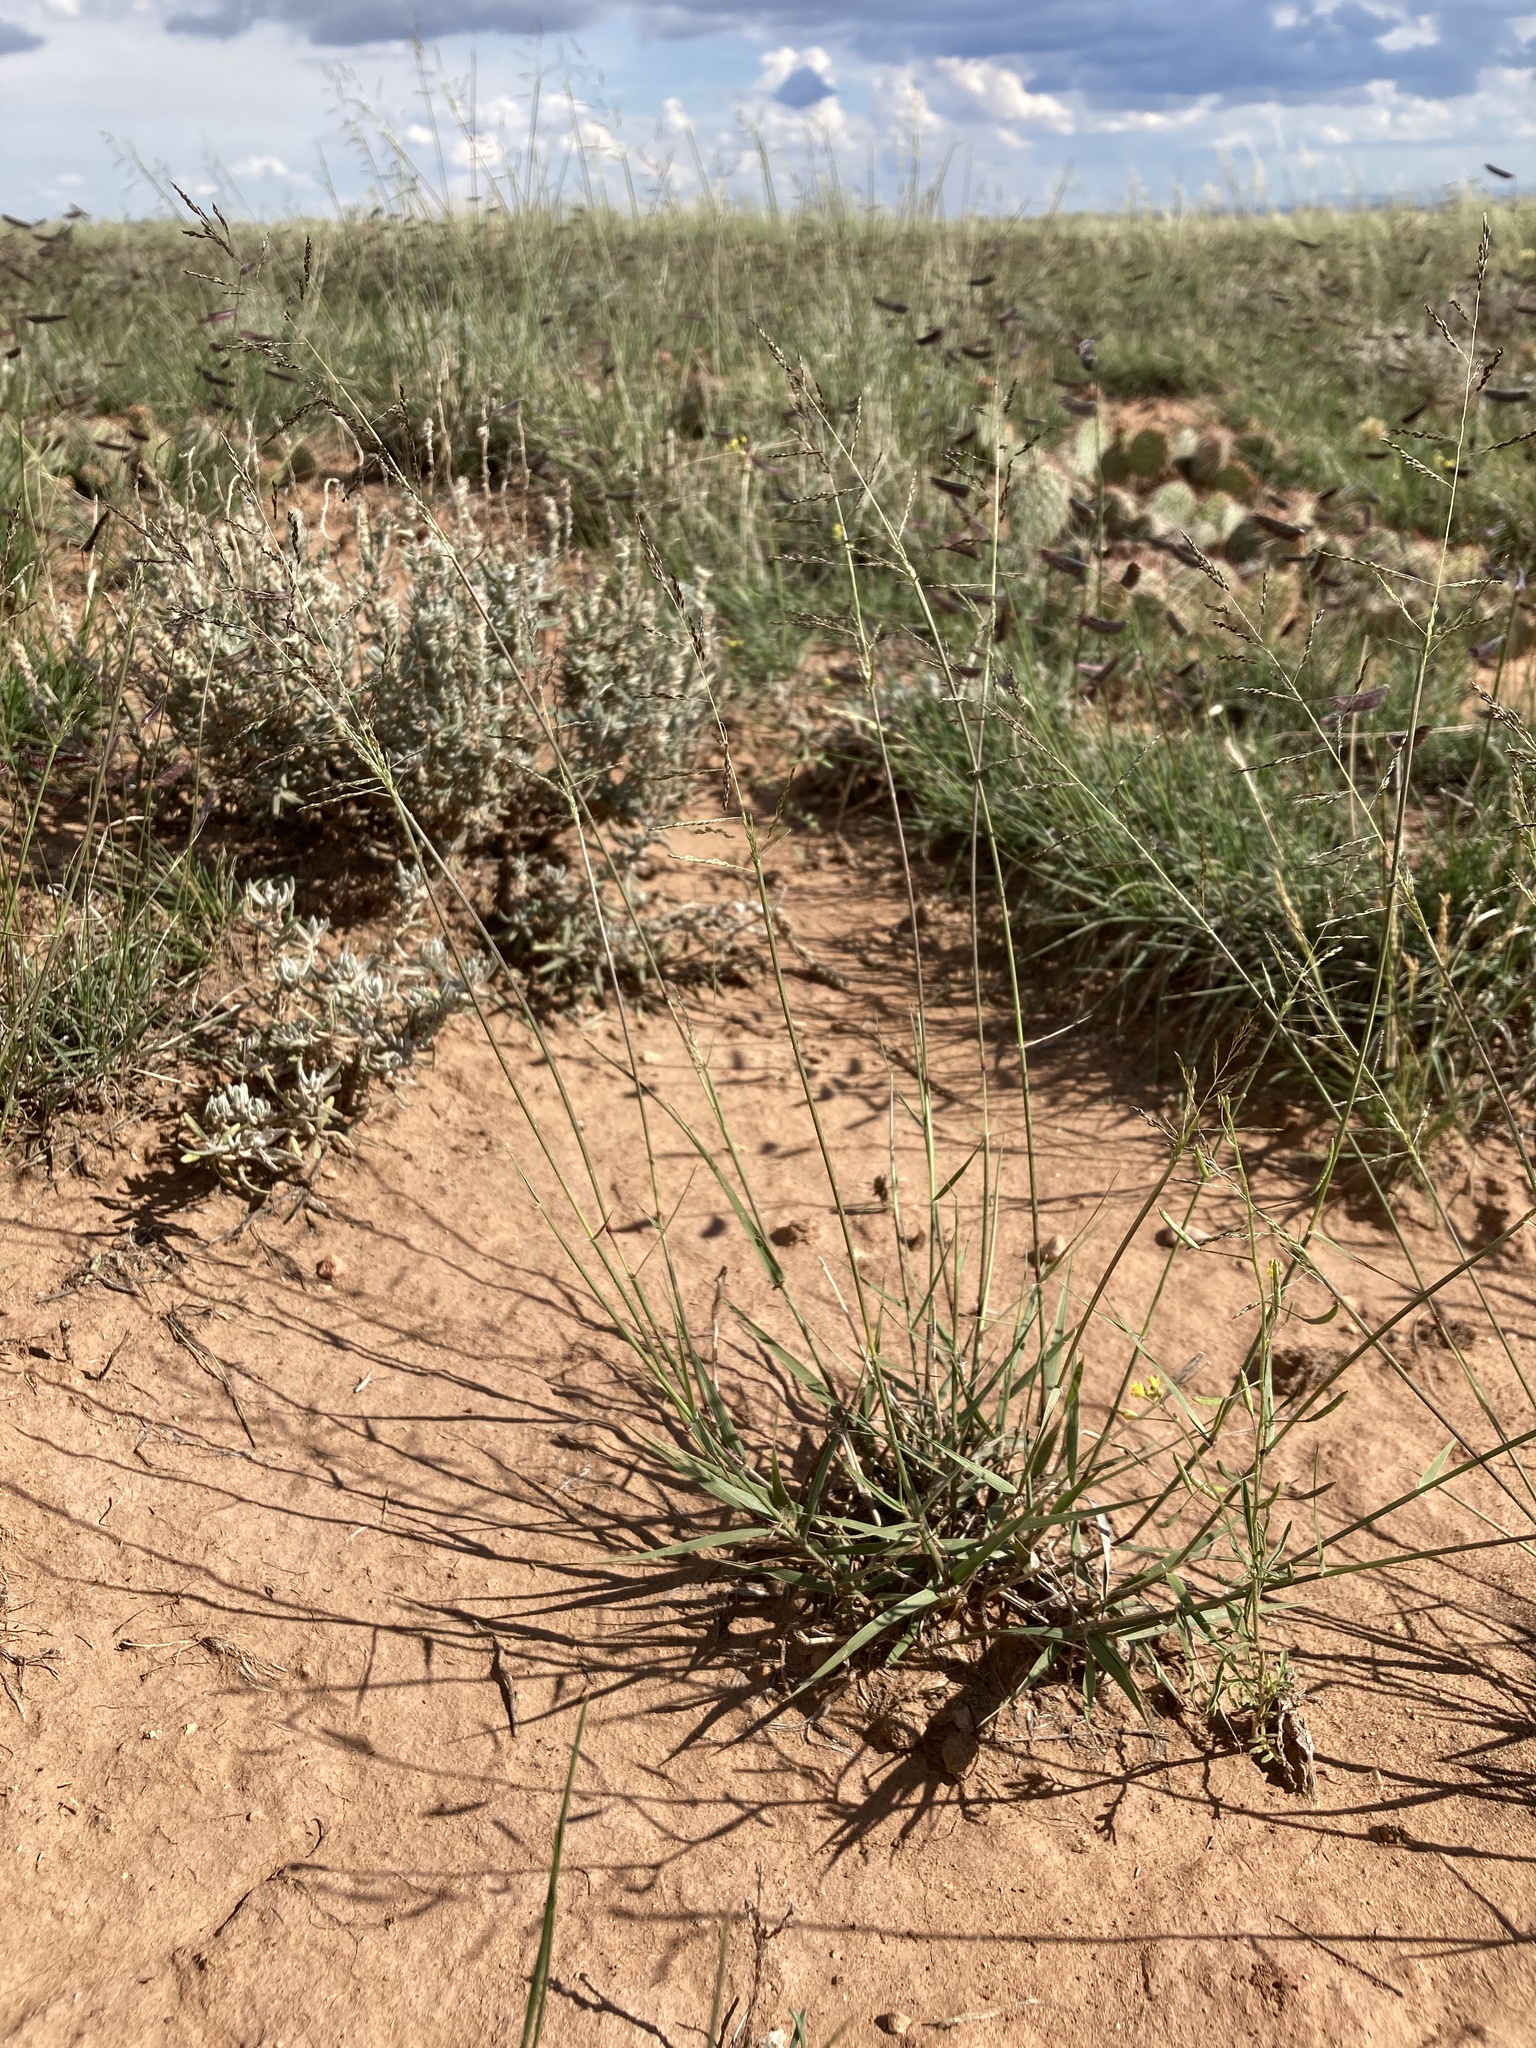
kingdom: Plantae
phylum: Tracheophyta
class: Liliopsida
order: Poales
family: Poaceae
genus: Sporobolus
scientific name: Sporobolus cryptandrus
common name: Sand dropseed
